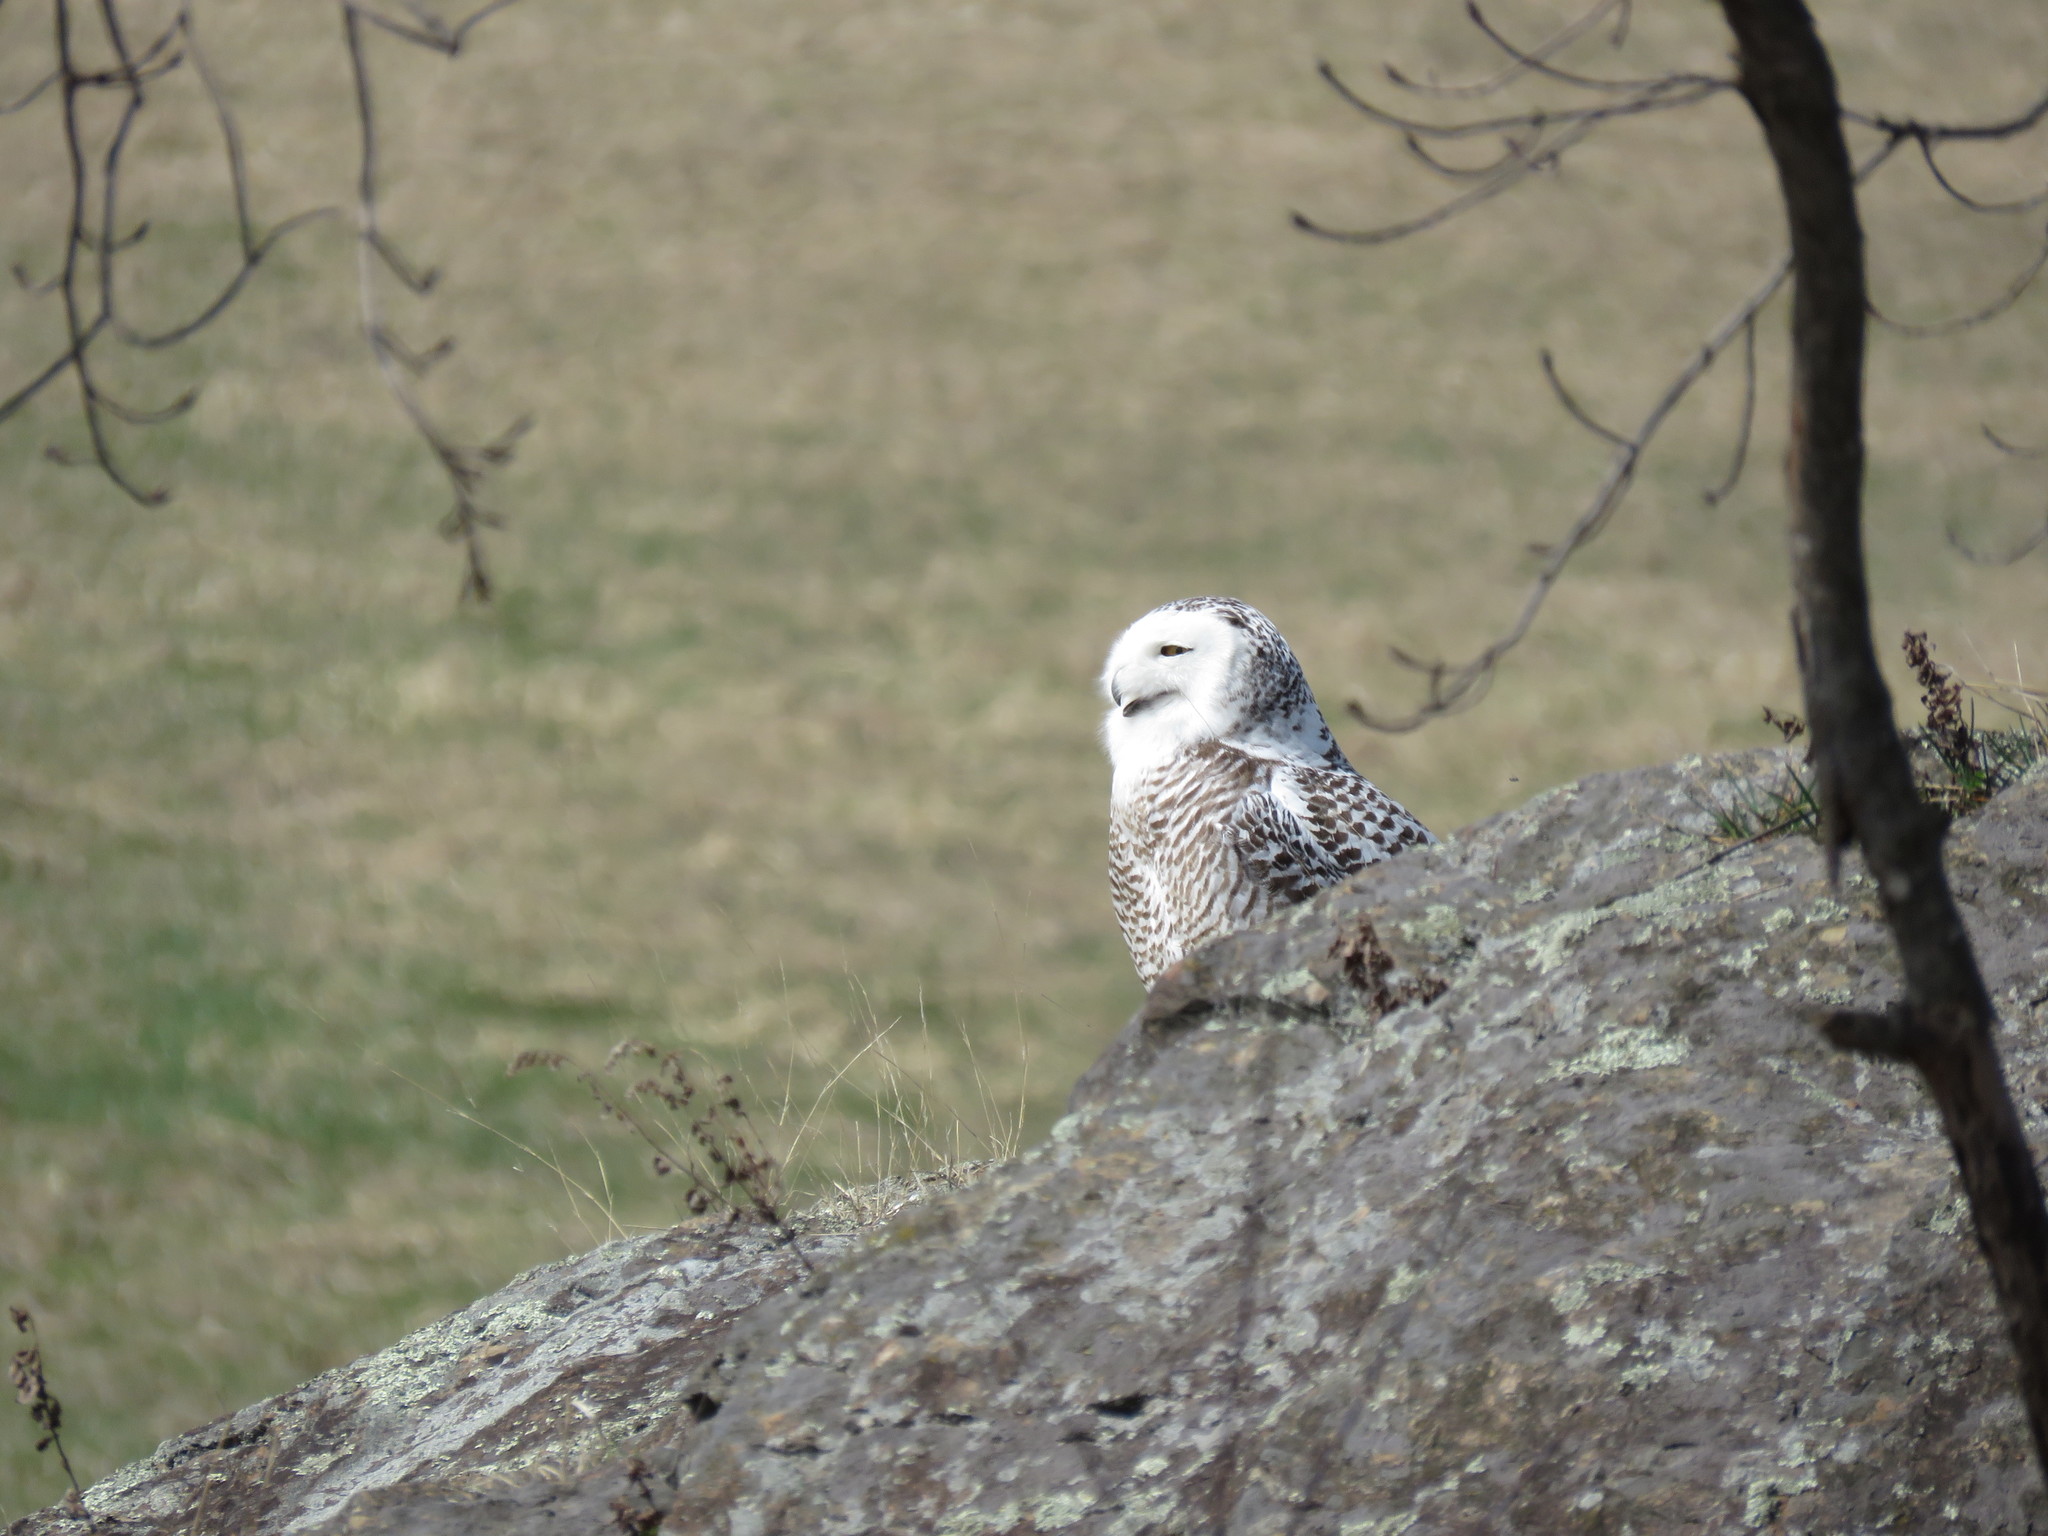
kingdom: Animalia
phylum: Chordata
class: Aves
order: Strigiformes
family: Strigidae
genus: Bubo
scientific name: Bubo scandiacus
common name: Snowy owl
